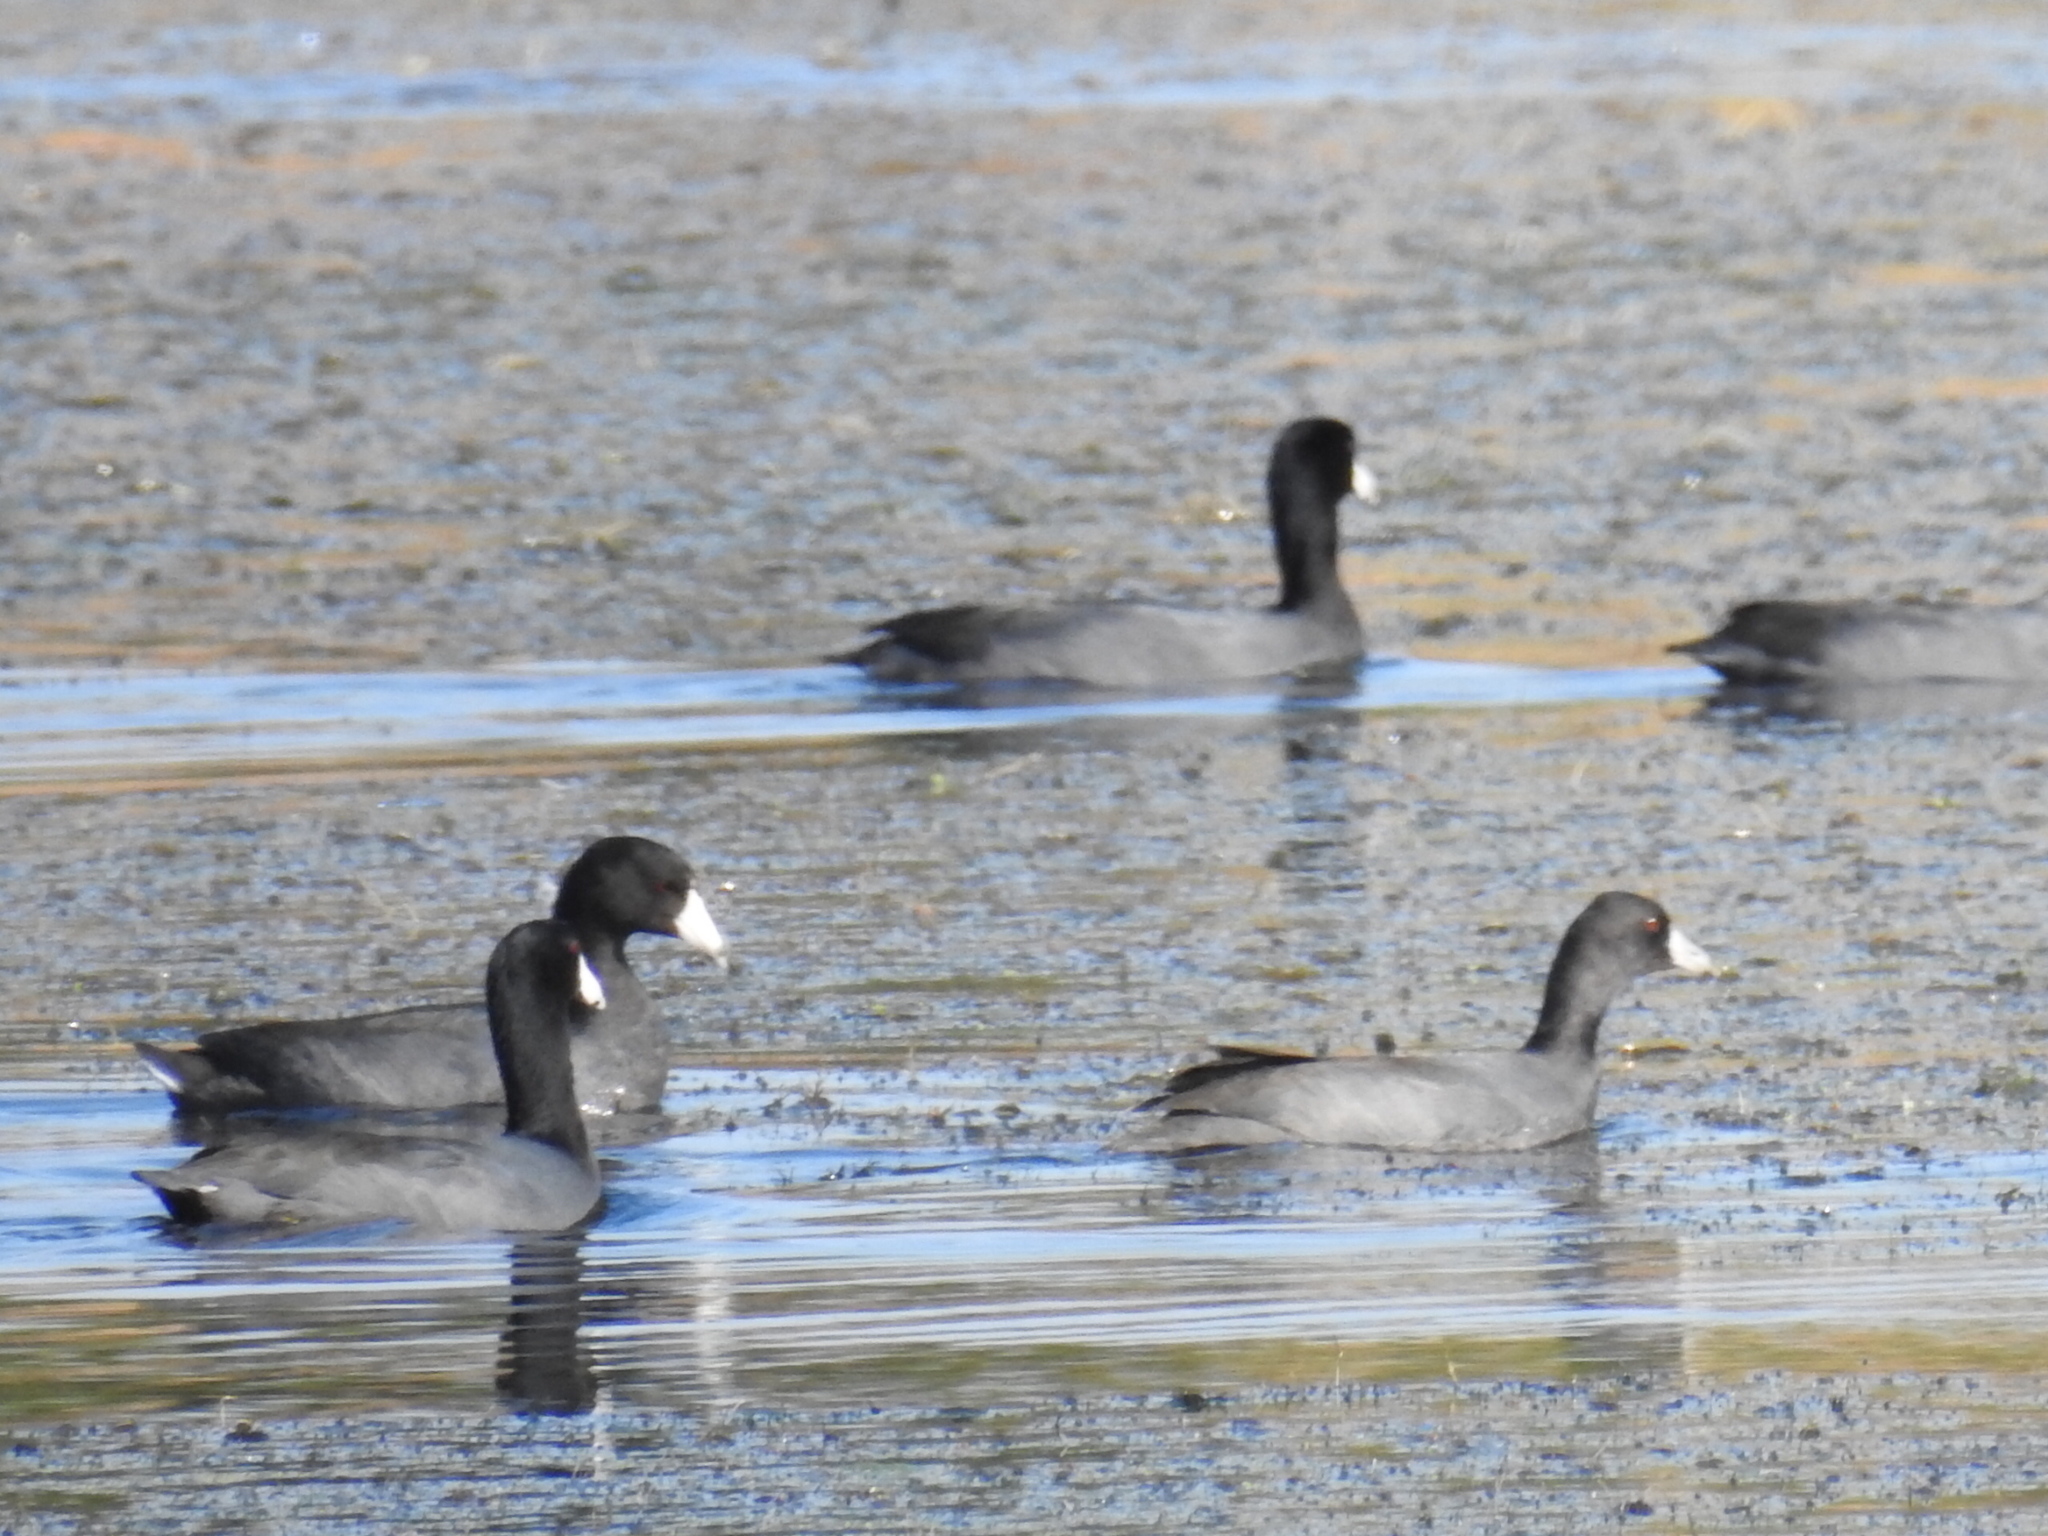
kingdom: Animalia
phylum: Chordata
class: Aves
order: Gruiformes
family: Rallidae
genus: Fulica
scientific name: Fulica americana
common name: American coot
